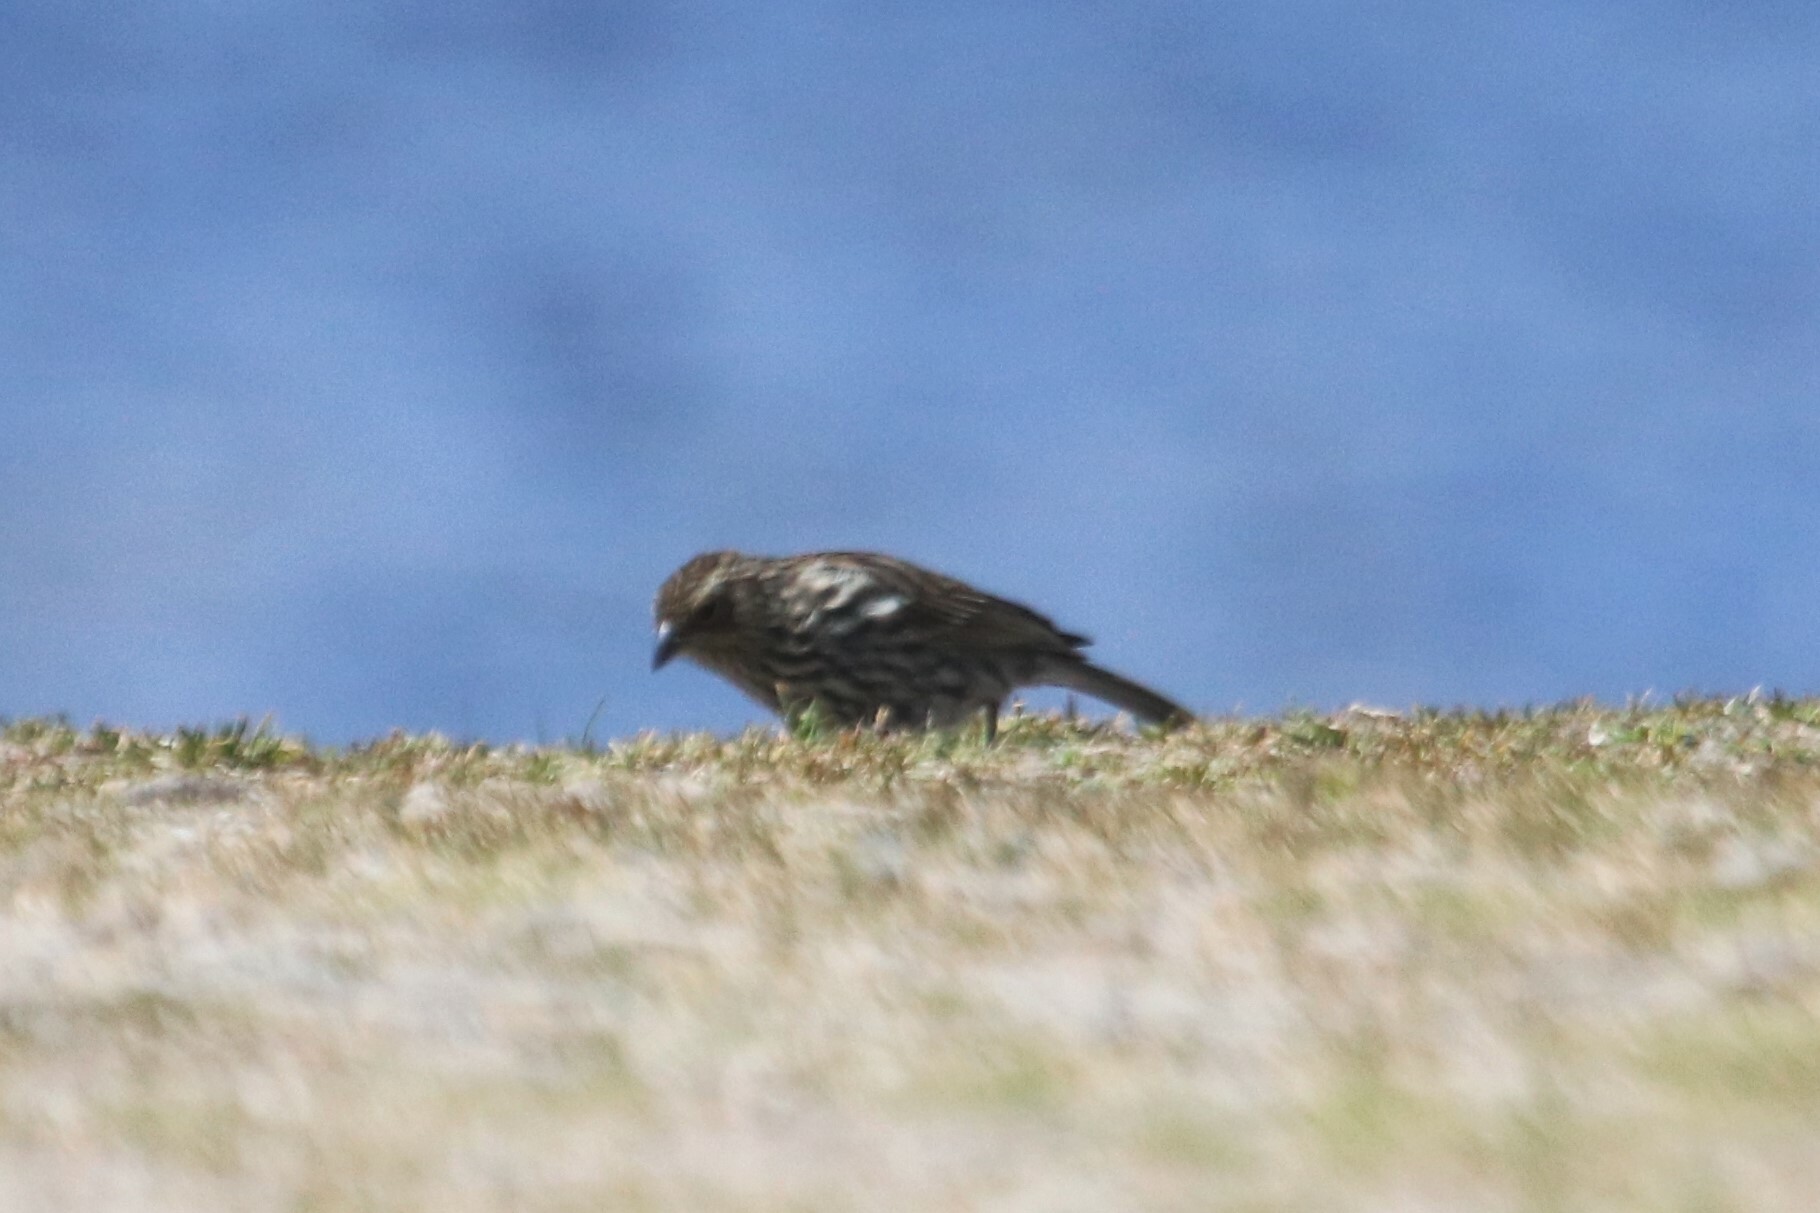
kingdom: Animalia
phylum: Chordata
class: Aves
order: Passeriformes
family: Thraupidae
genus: Geospizopsis
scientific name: Geospizopsis unicolor
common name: Plumbeous sierra-finch
